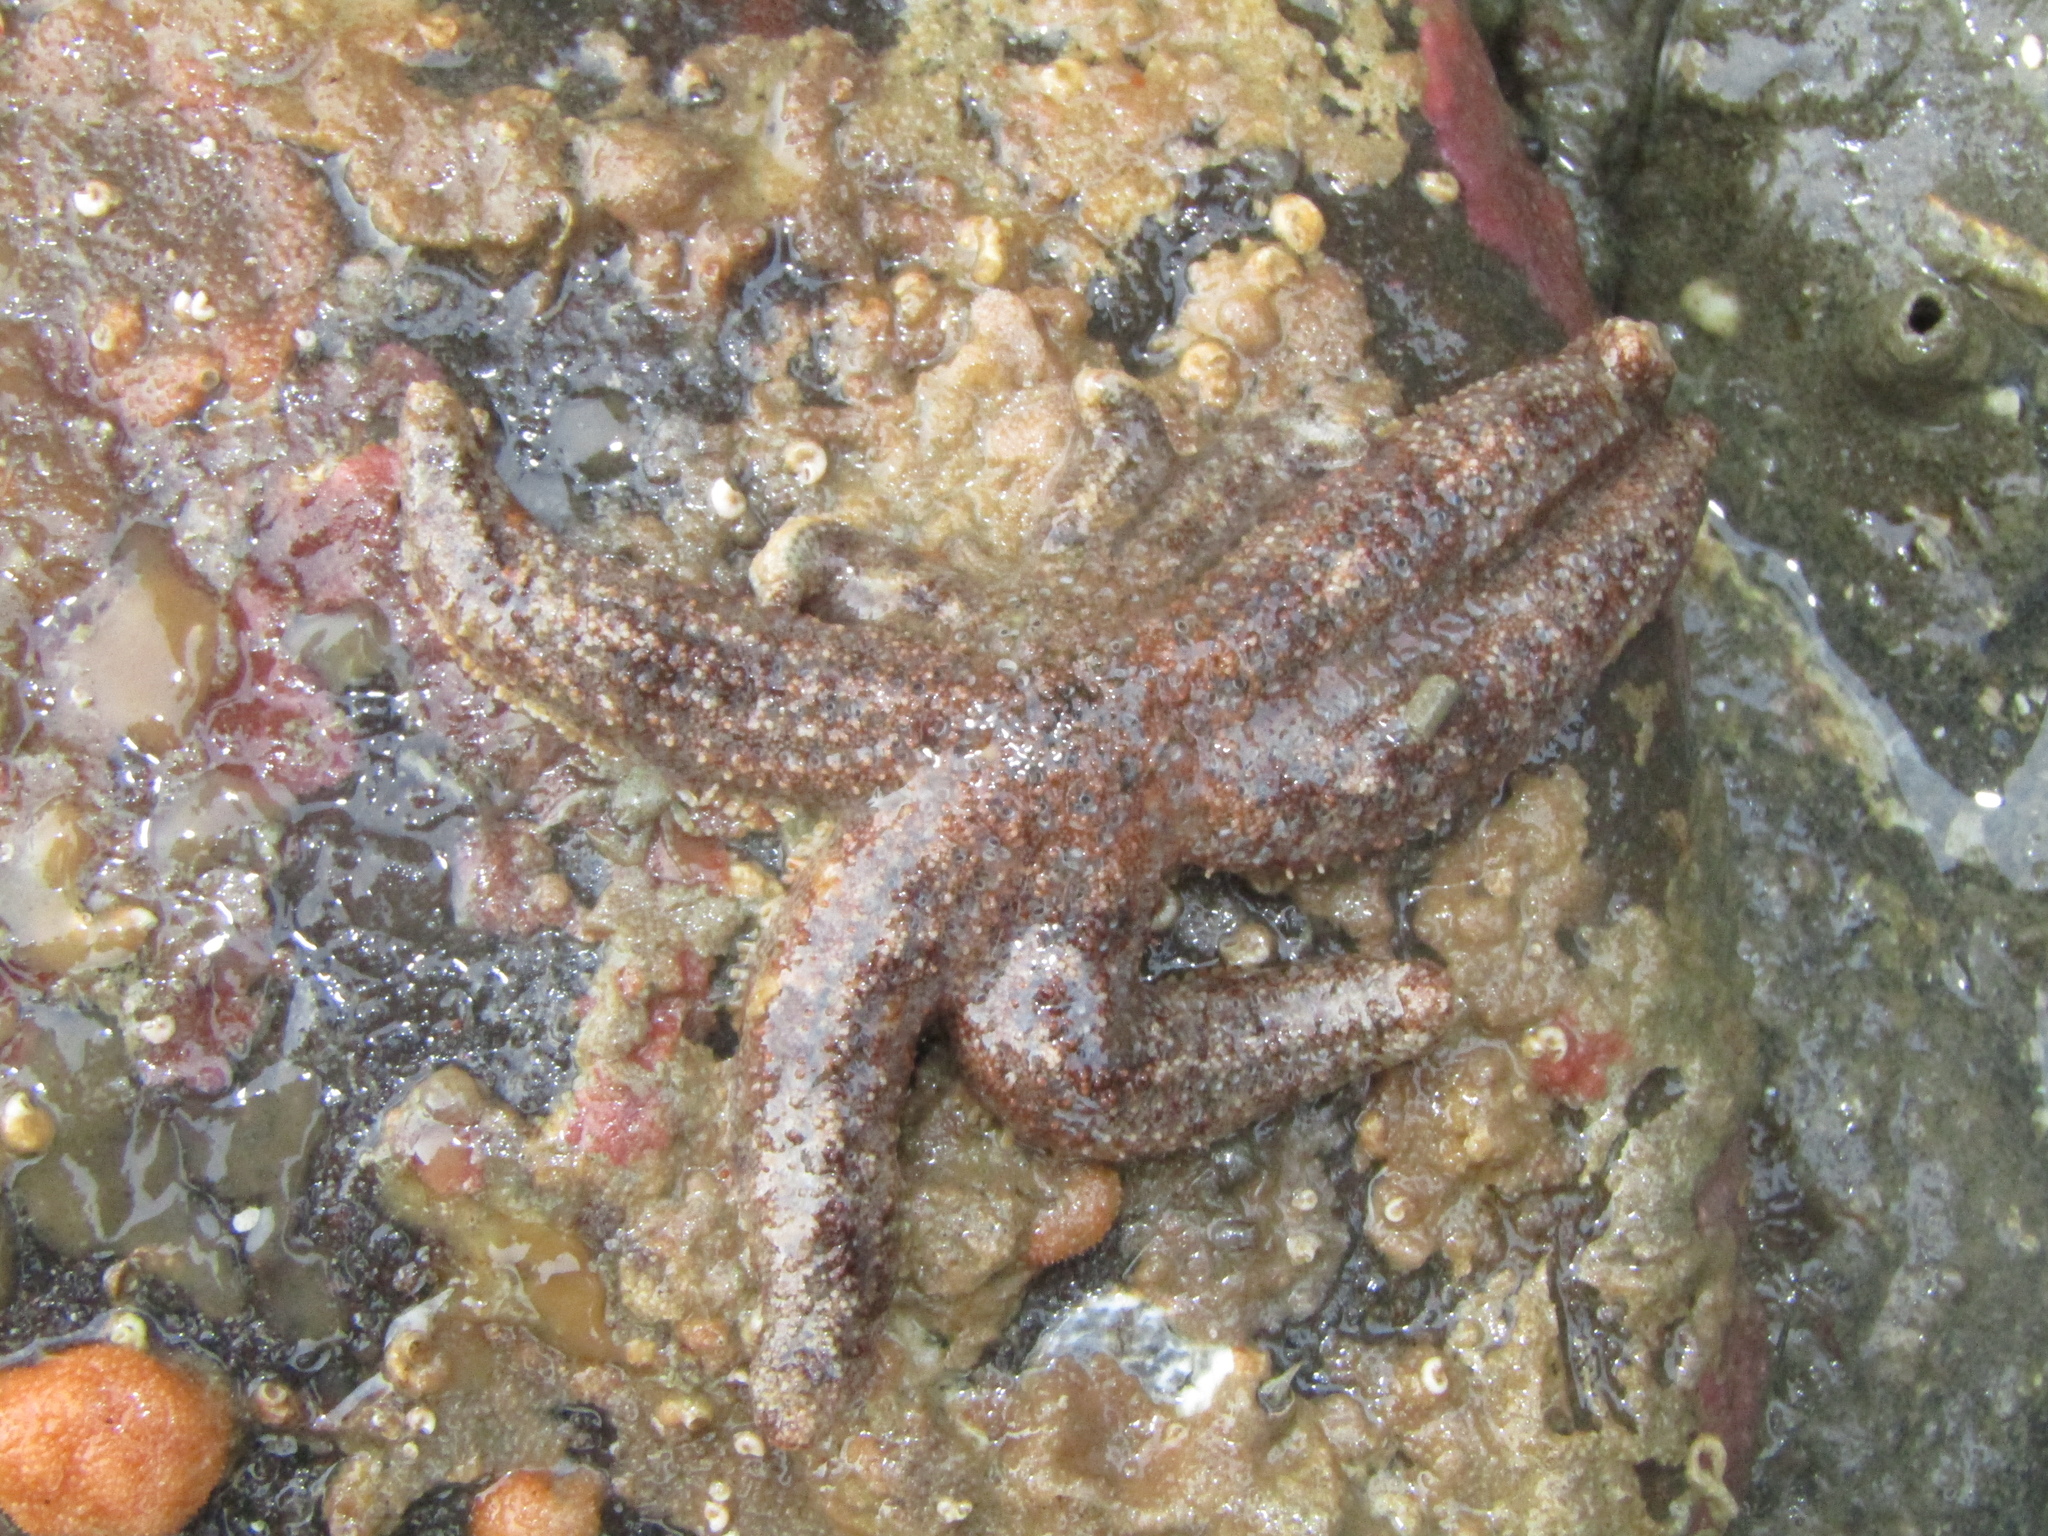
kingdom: Animalia
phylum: Echinodermata
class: Asteroidea
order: Forcipulatida
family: Stichasteridae
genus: Allostichaster
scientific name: Allostichaster polyplax
